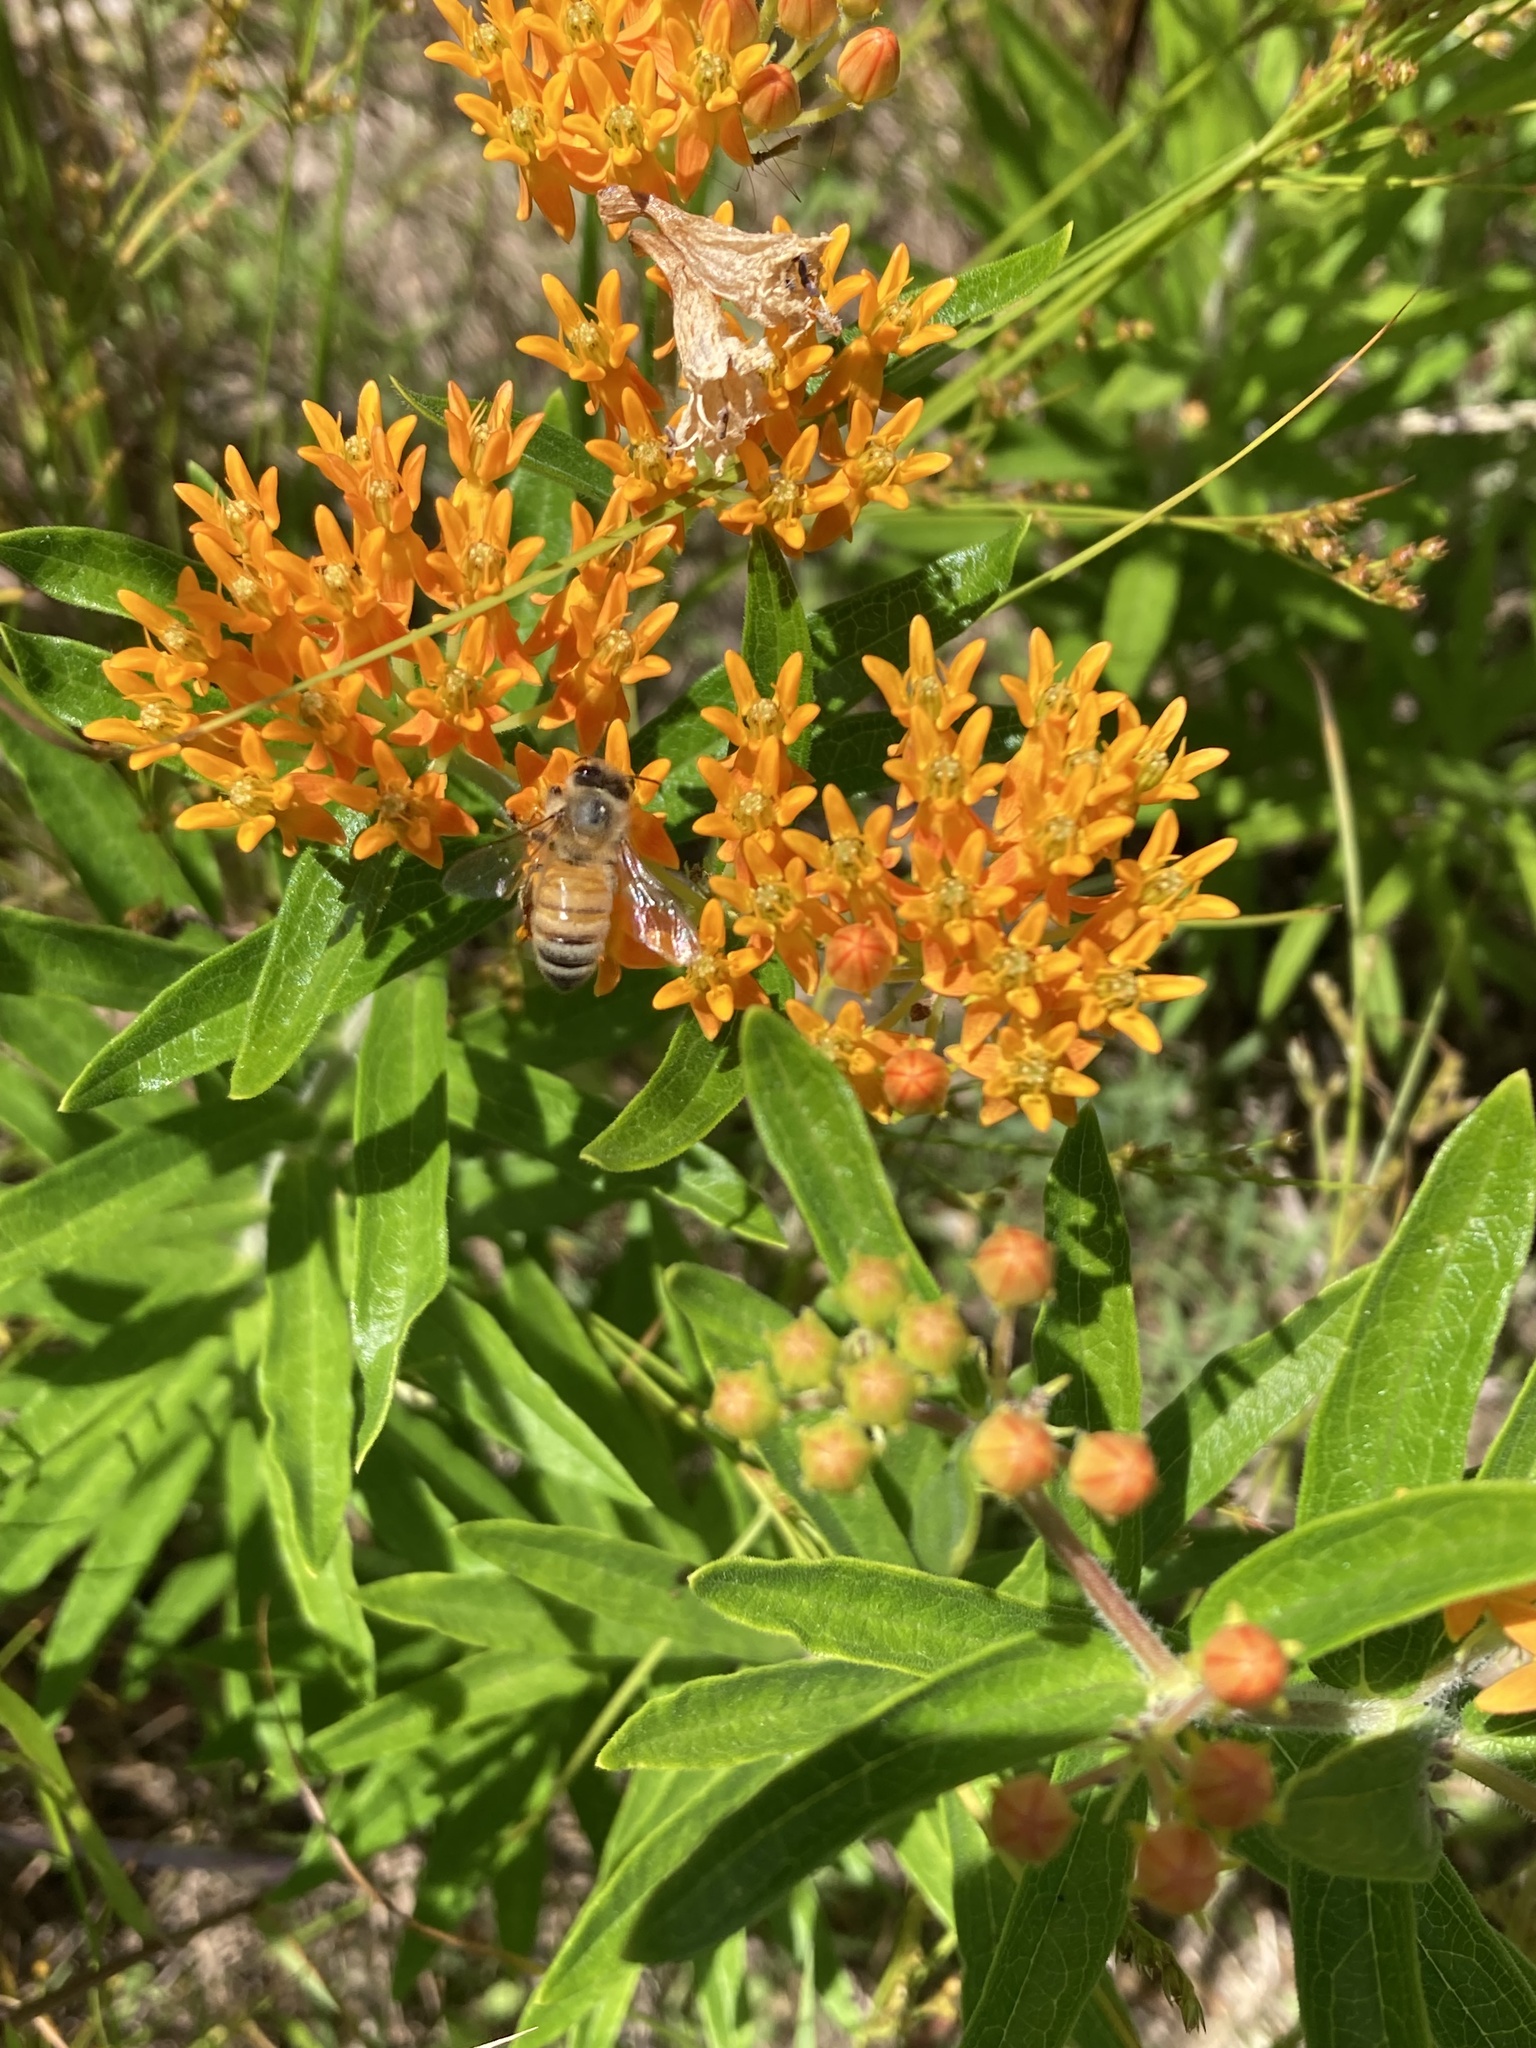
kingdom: Animalia
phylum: Arthropoda
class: Insecta
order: Hymenoptera
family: Apidae
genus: Apis
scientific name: Apis mellifera
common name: Honey bee
